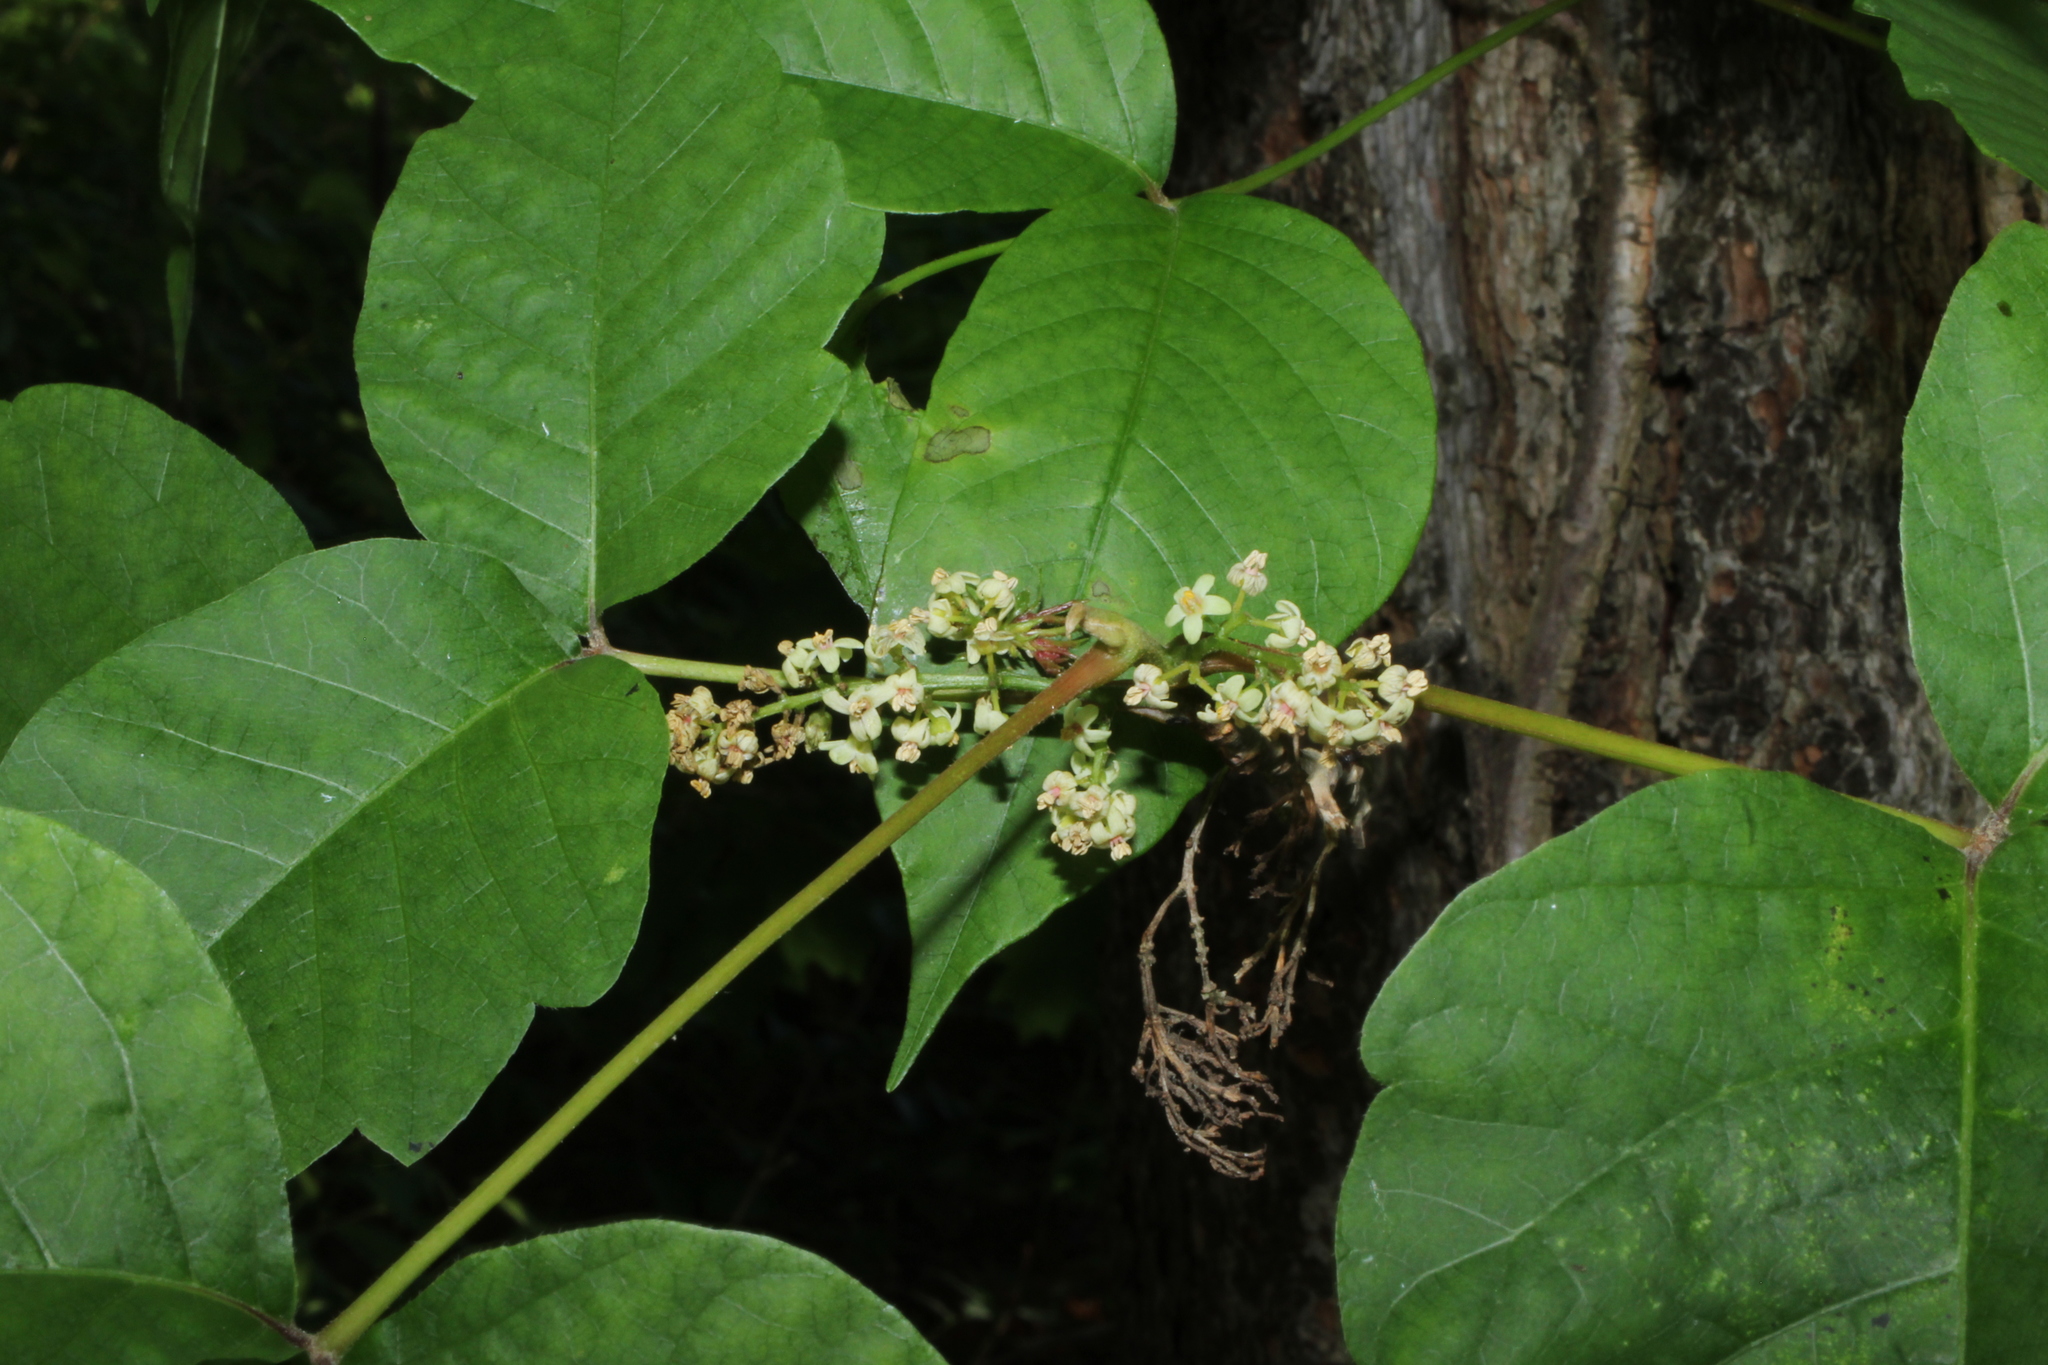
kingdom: Plantae
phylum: Tracheophyta
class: Magnoliopsida
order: Sapindales
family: Anacardiaceae
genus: Toxicodendron
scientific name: Toxicodendron radicans
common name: Poison ivy
